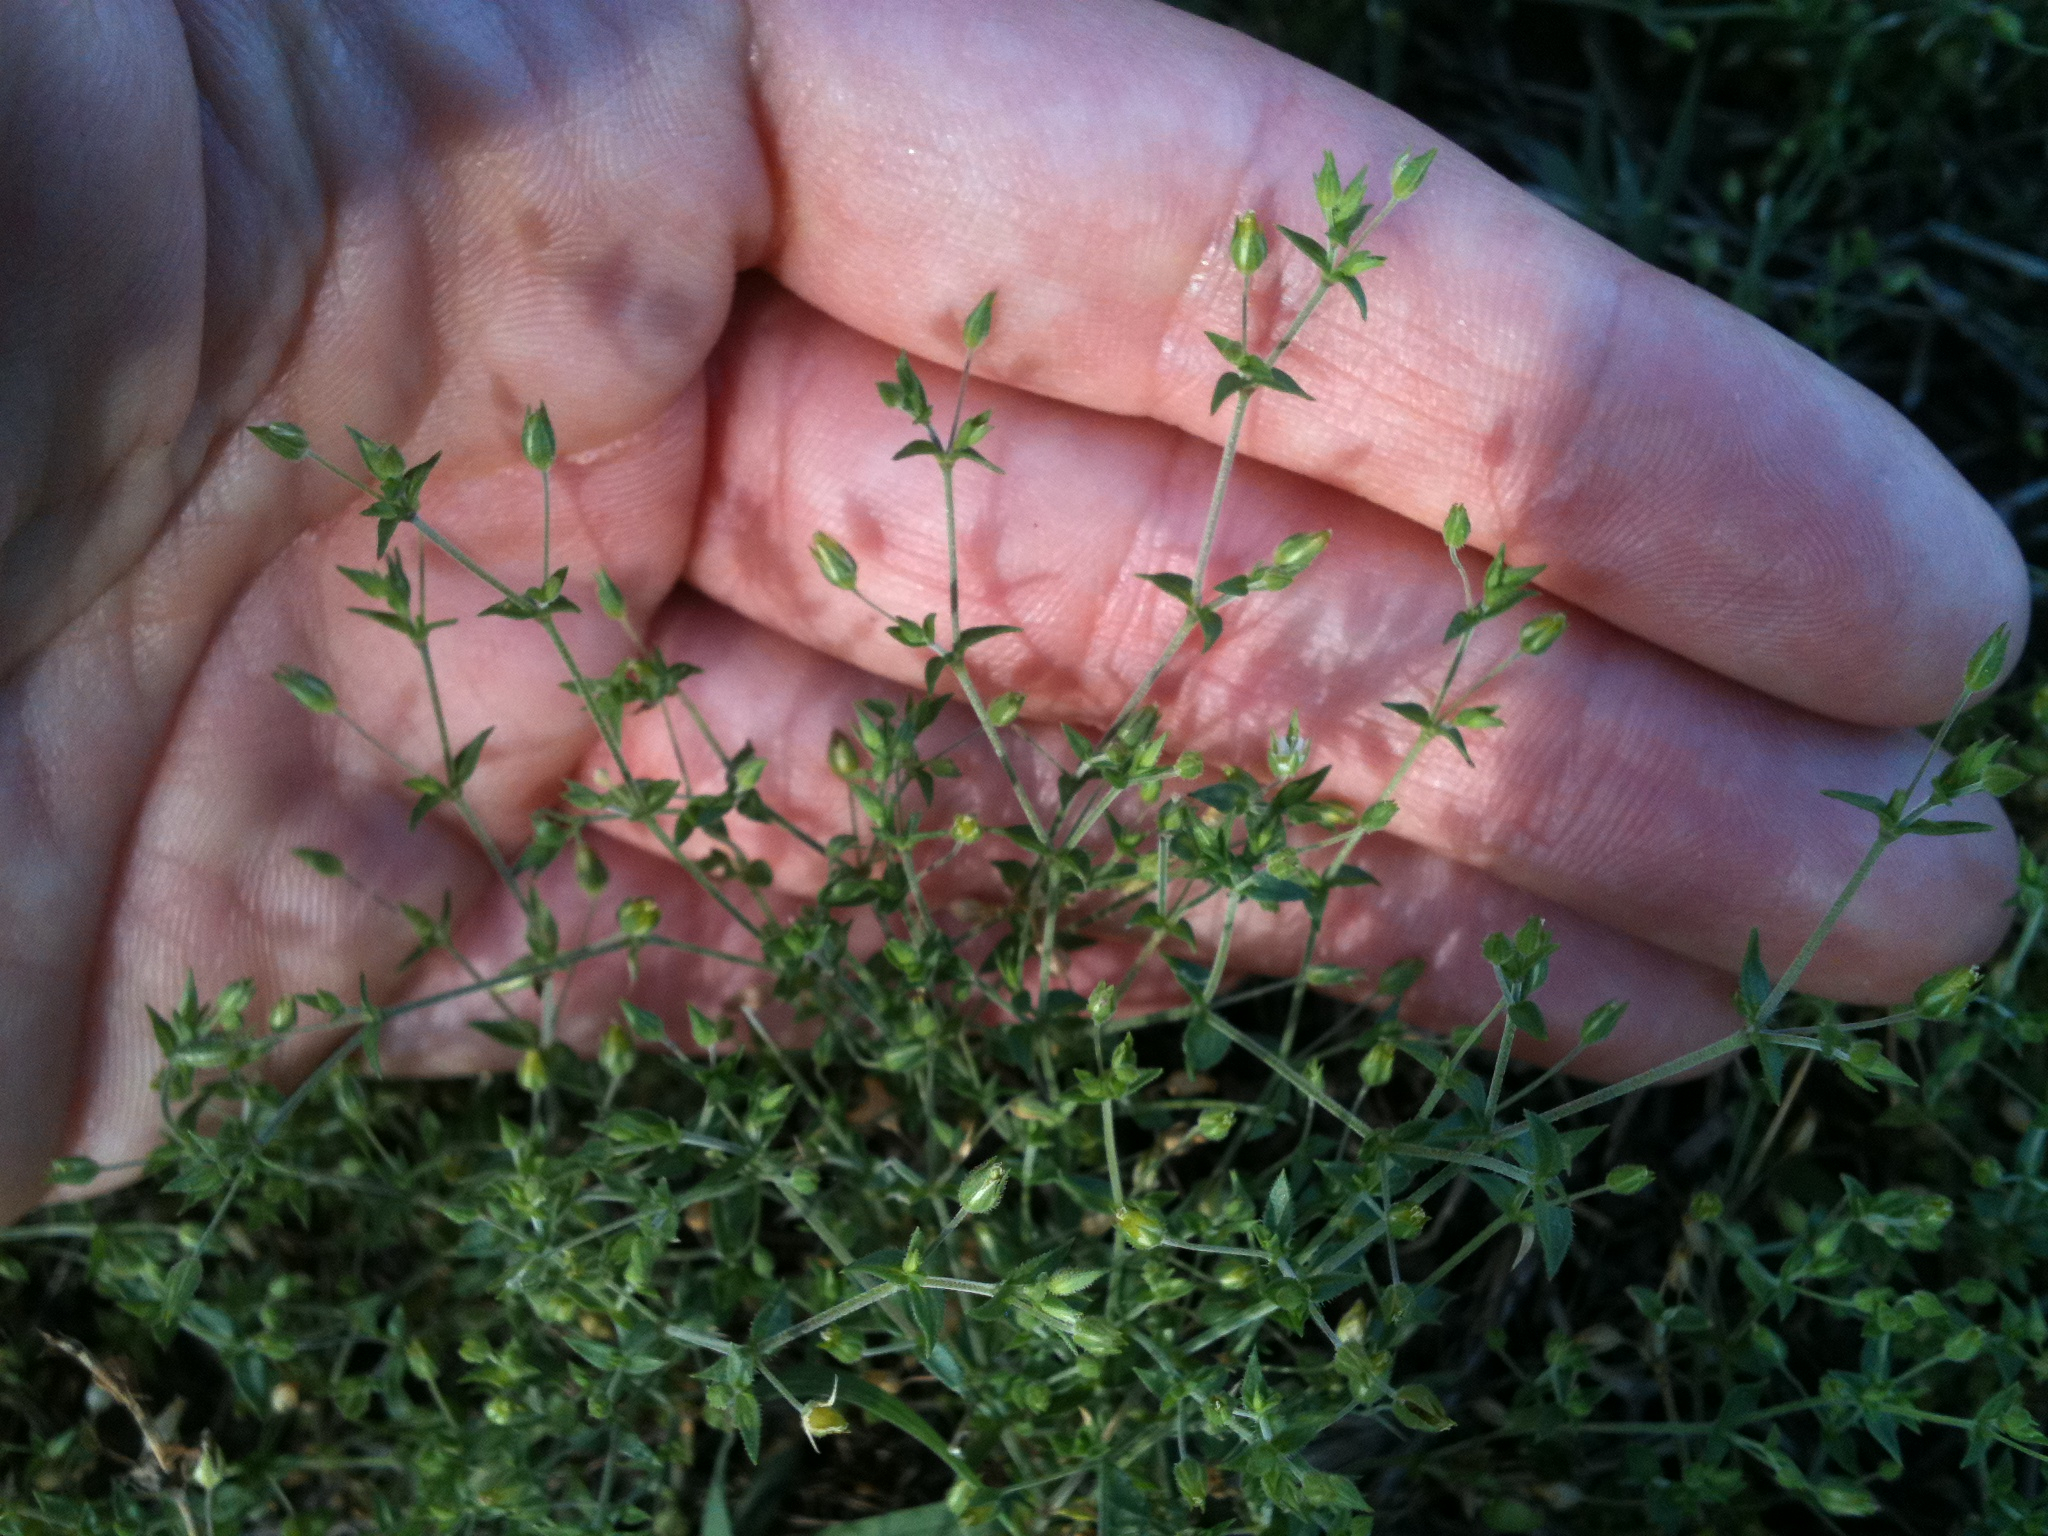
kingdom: Plantae
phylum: Tracheophyta
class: Magnoliopsida
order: Caryophyllales
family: Caryophyllaceae
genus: Arenaria
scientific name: Arenaria serpyllifolia
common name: Thyme-leaved sandwort
